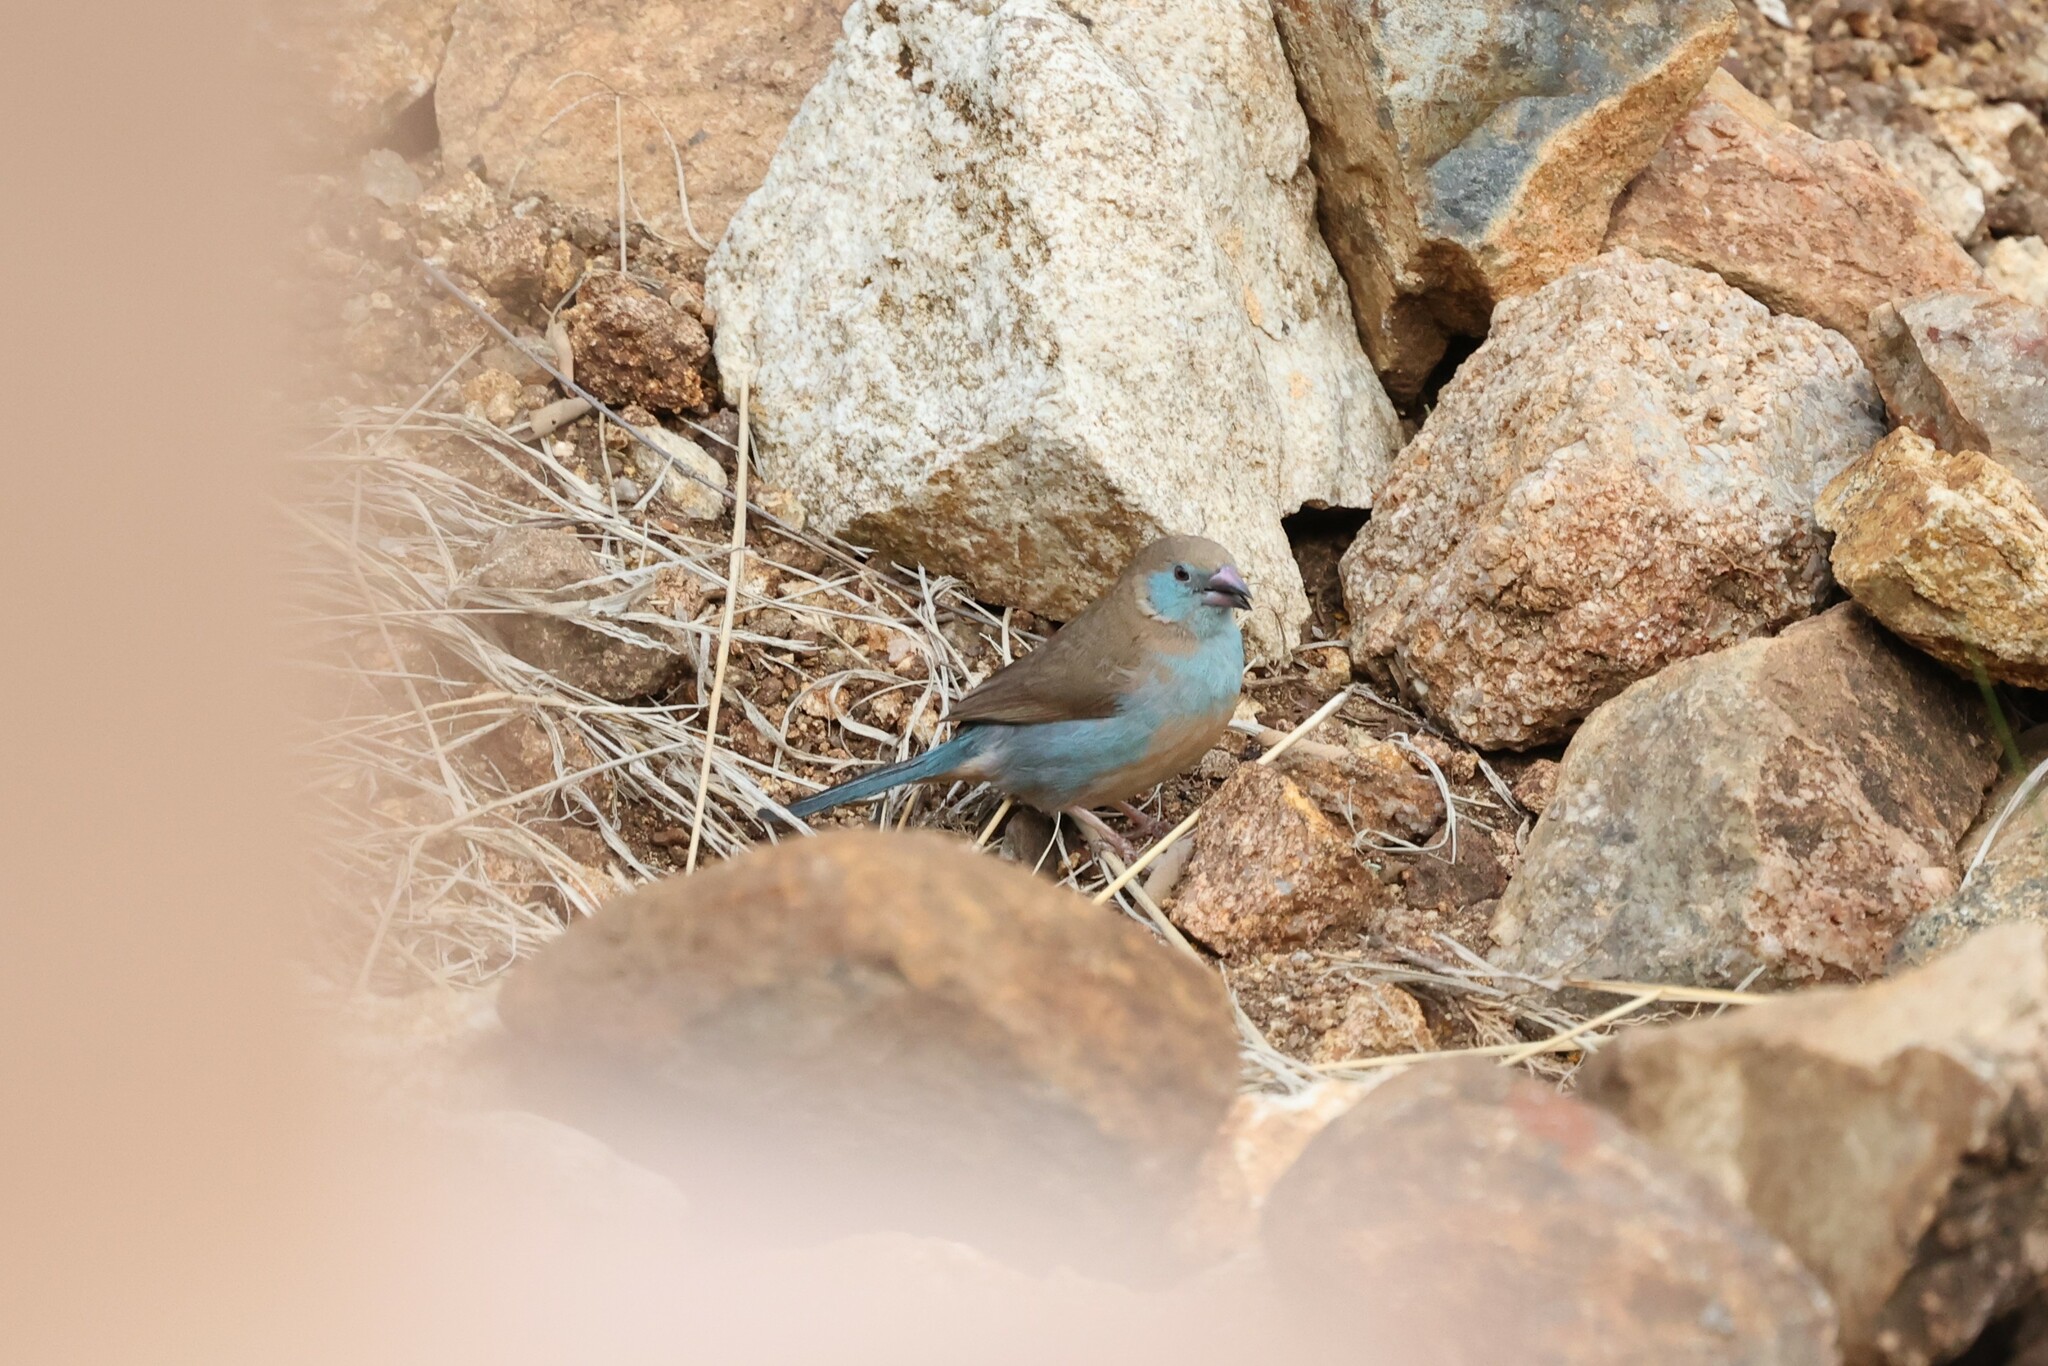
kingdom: Animalia
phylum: Chordata
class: Aves
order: Passeriformes
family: Estrildidae
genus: Uraeginthus
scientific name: Uraeginthus bengalus
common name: Red-cheeked cordon-bleu
